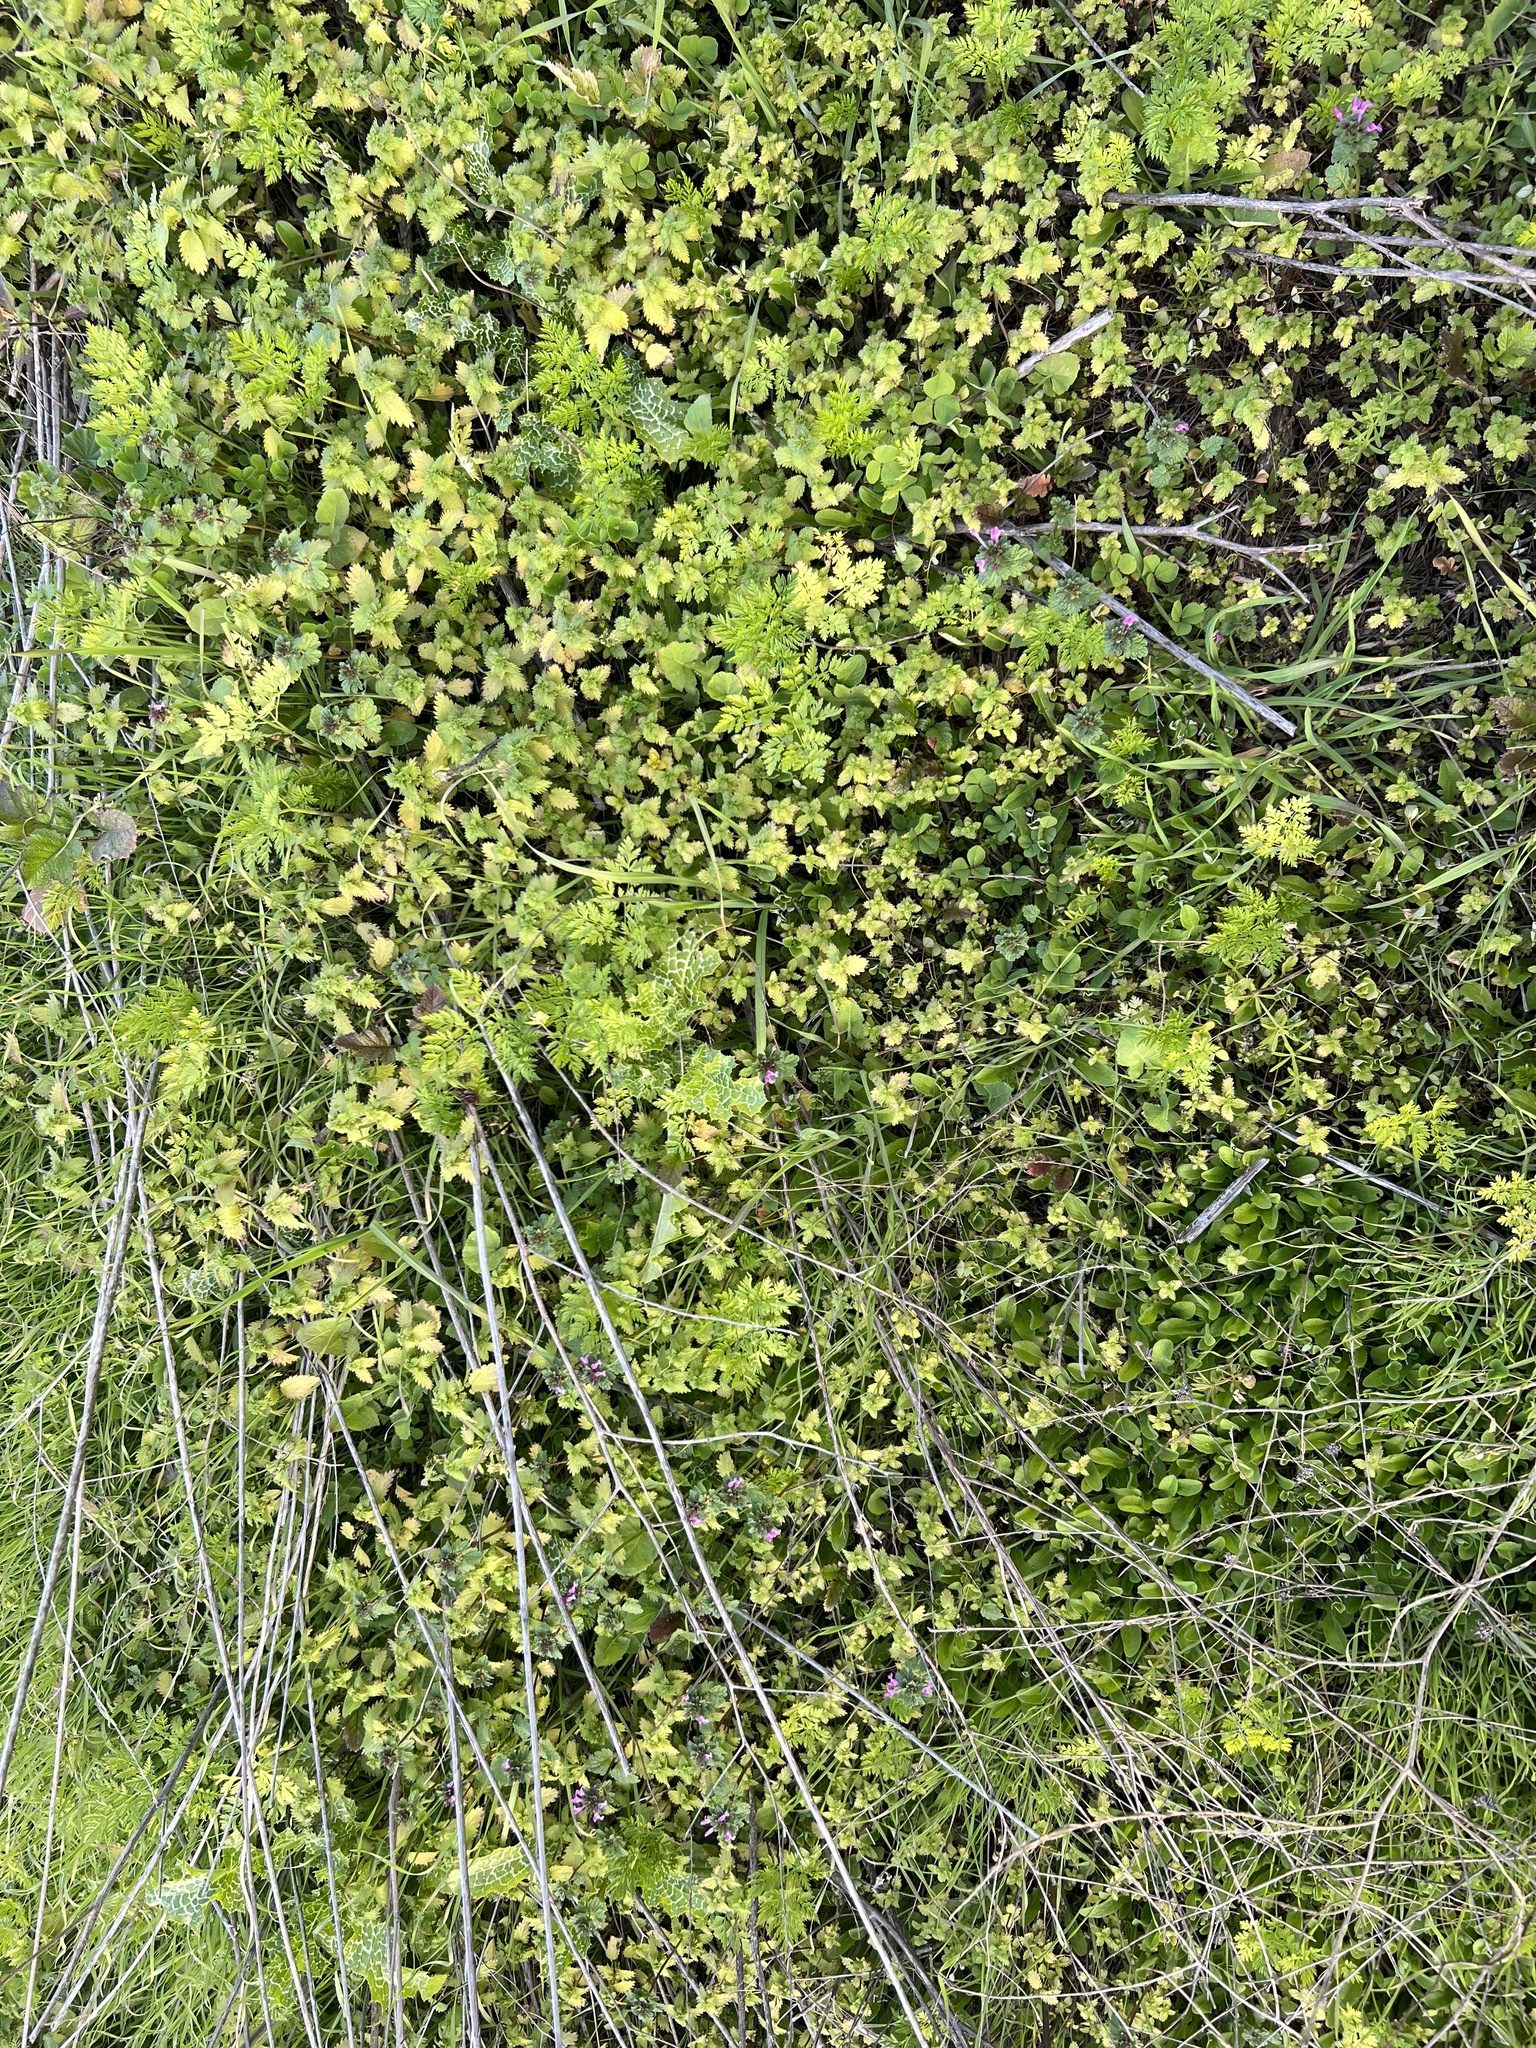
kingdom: Plantae
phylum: Tracheophyta
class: Magnoliopsida
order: Lamiales
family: Lamiaceae
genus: Lamium
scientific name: Lamium amplexicaule
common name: Henbit dead-nettle
